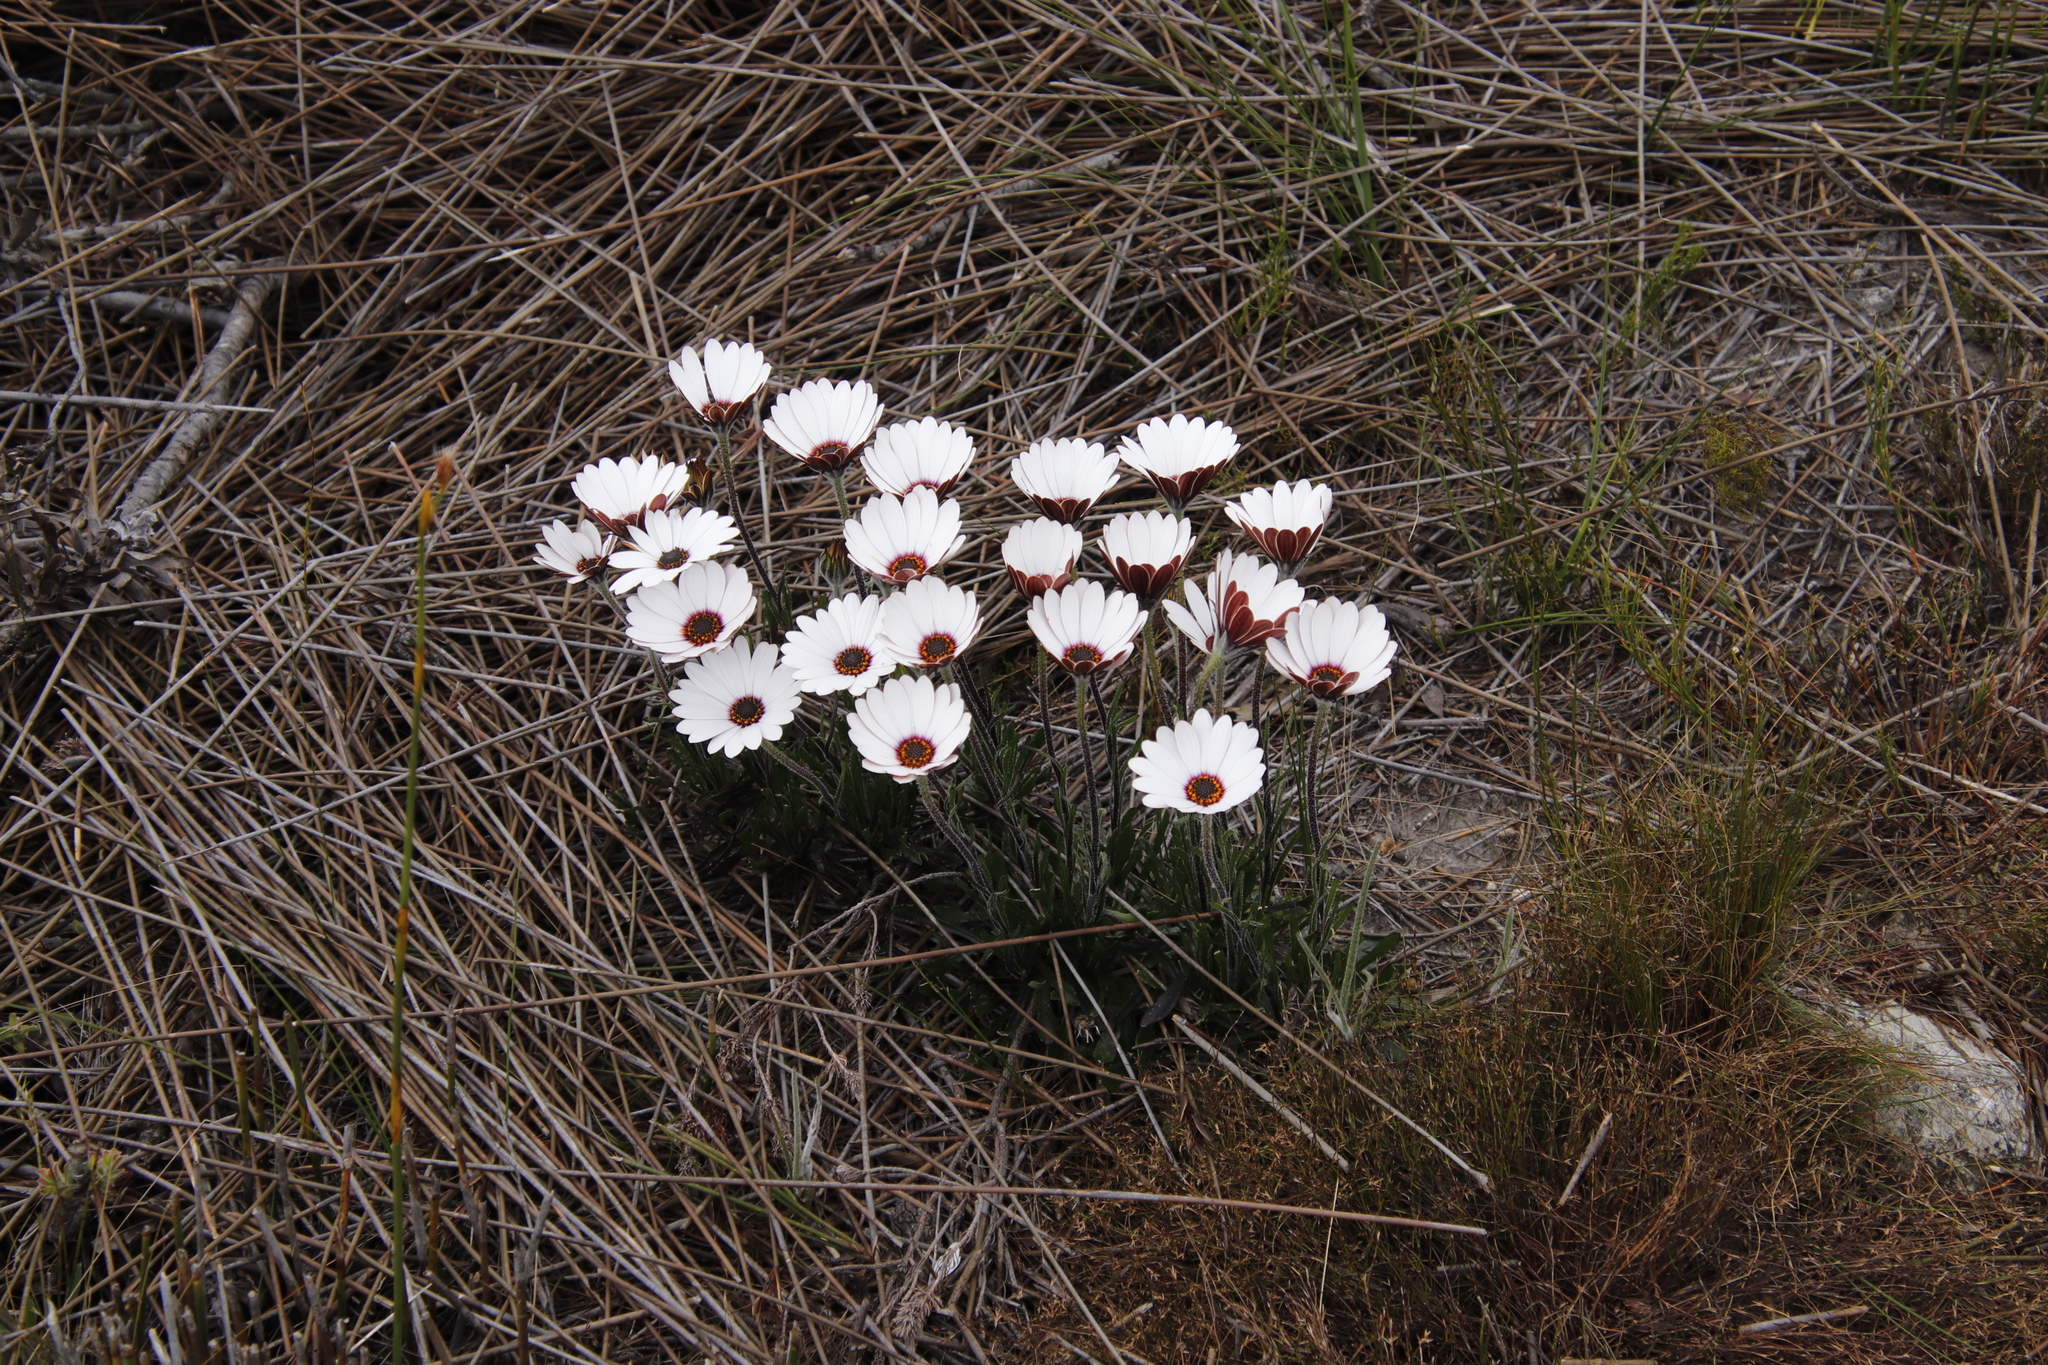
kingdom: Plantae
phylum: Tracheophyta
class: Magnoliopsida
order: Asterales
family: Asteraceae
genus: Dimorphotheca
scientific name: Dimorphotheca nudicaulis
